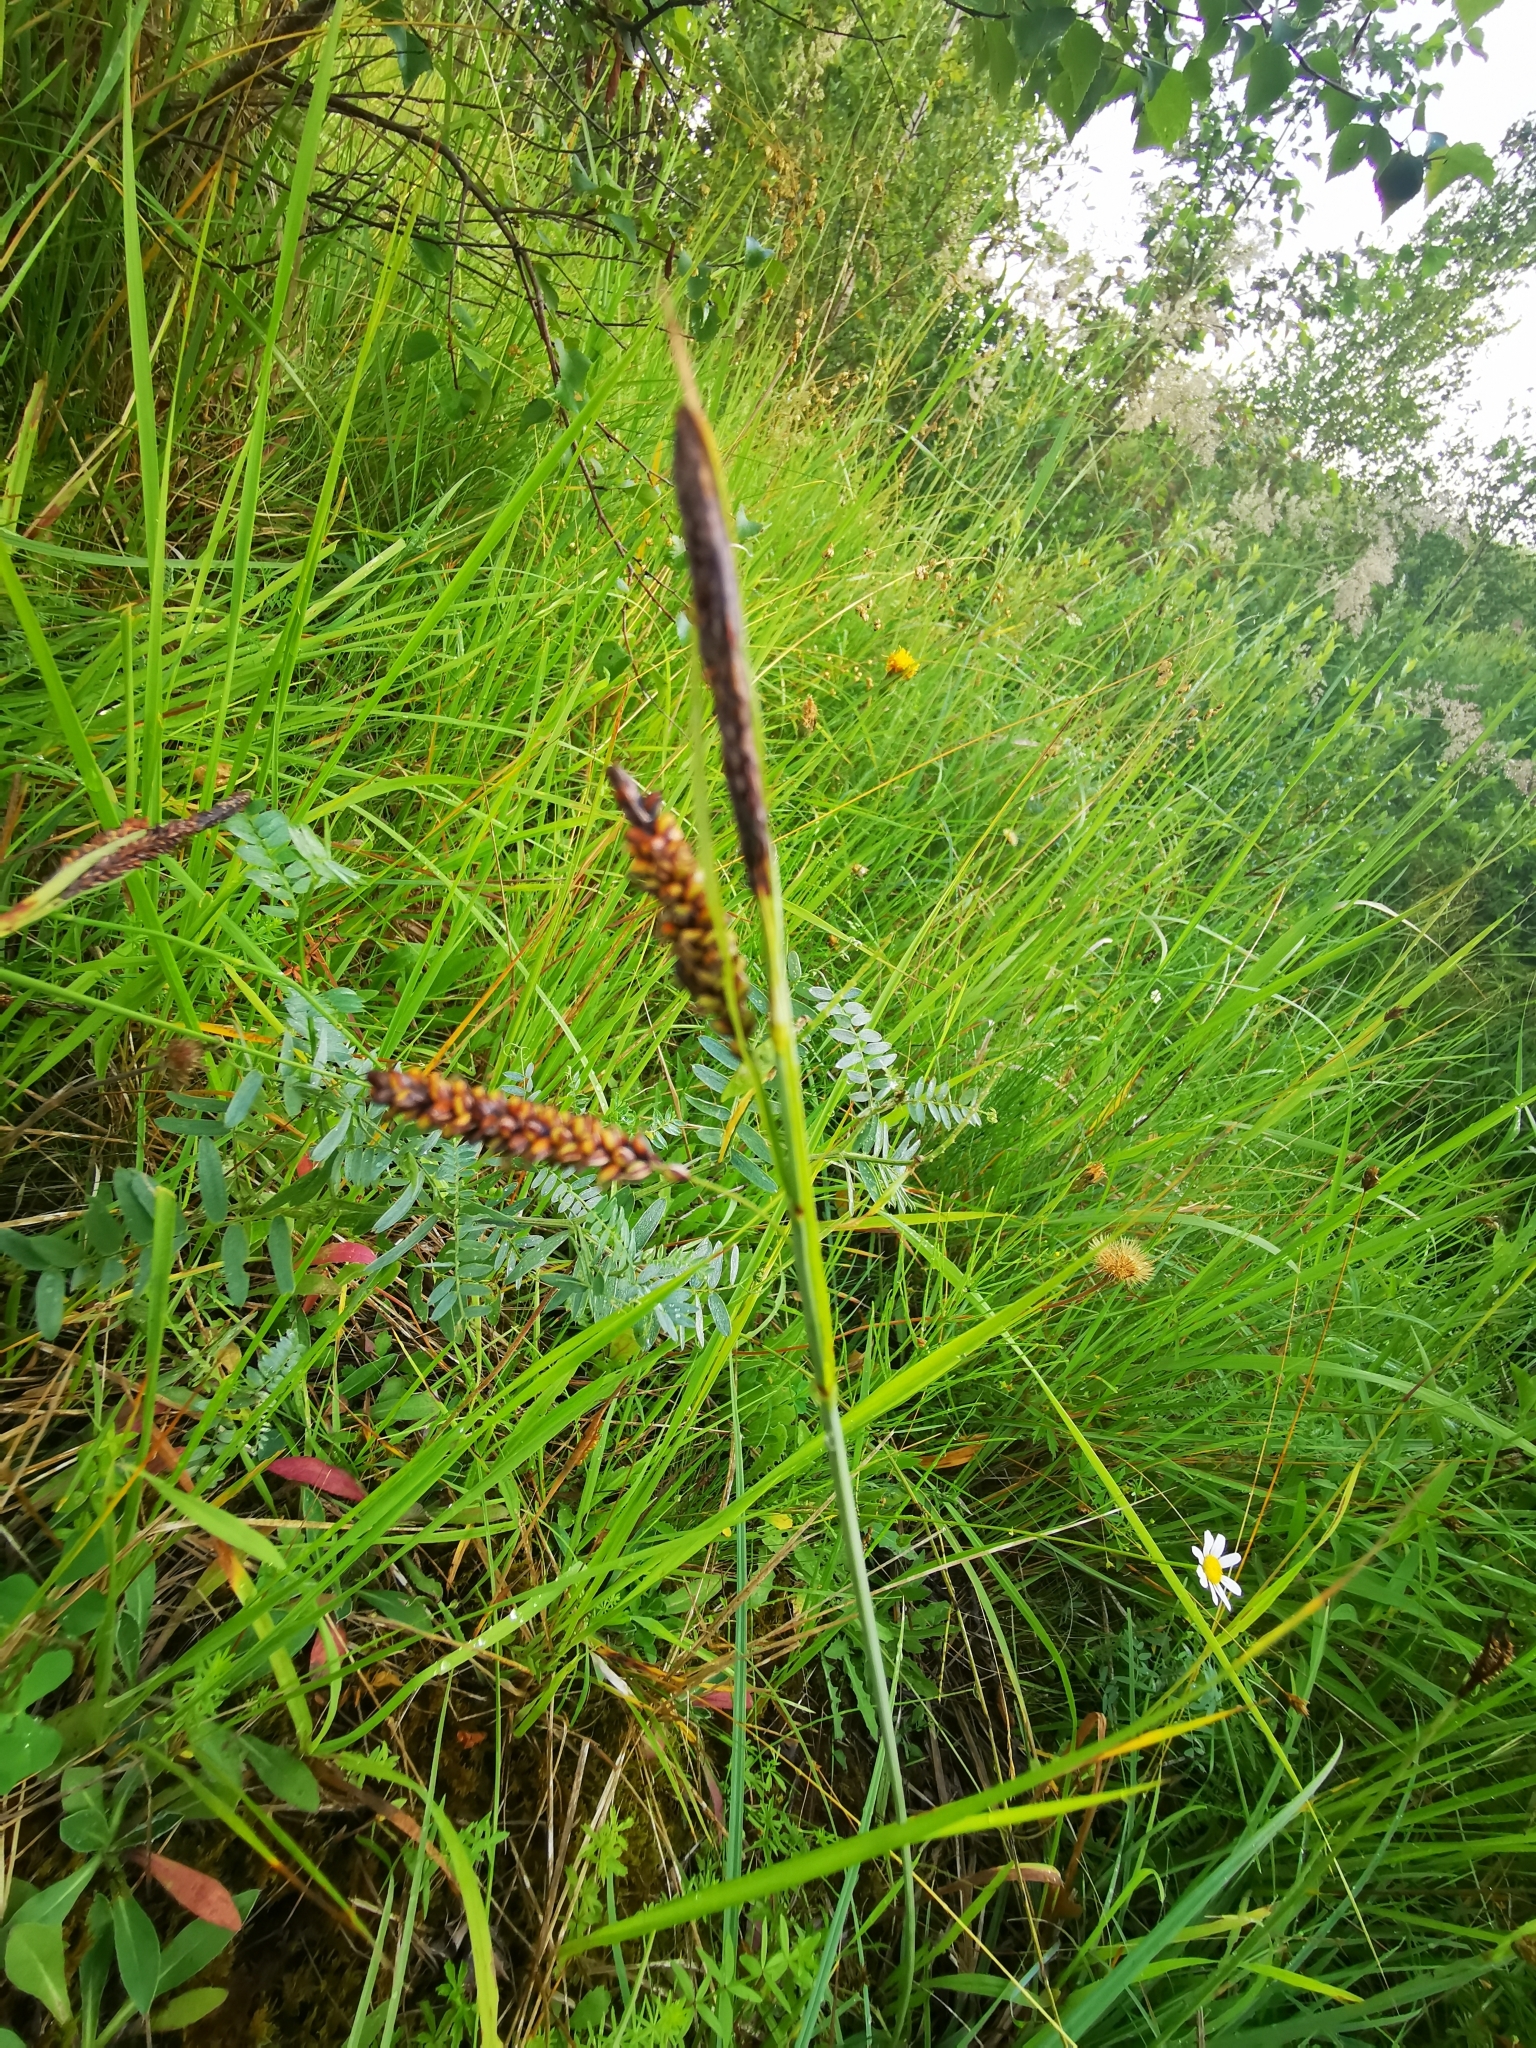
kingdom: Plantae
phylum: Tracheophyta
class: Liliopsida
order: Poales
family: Cyperaceae
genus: Carex
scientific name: Carex flacca
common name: Glaucous sedge
